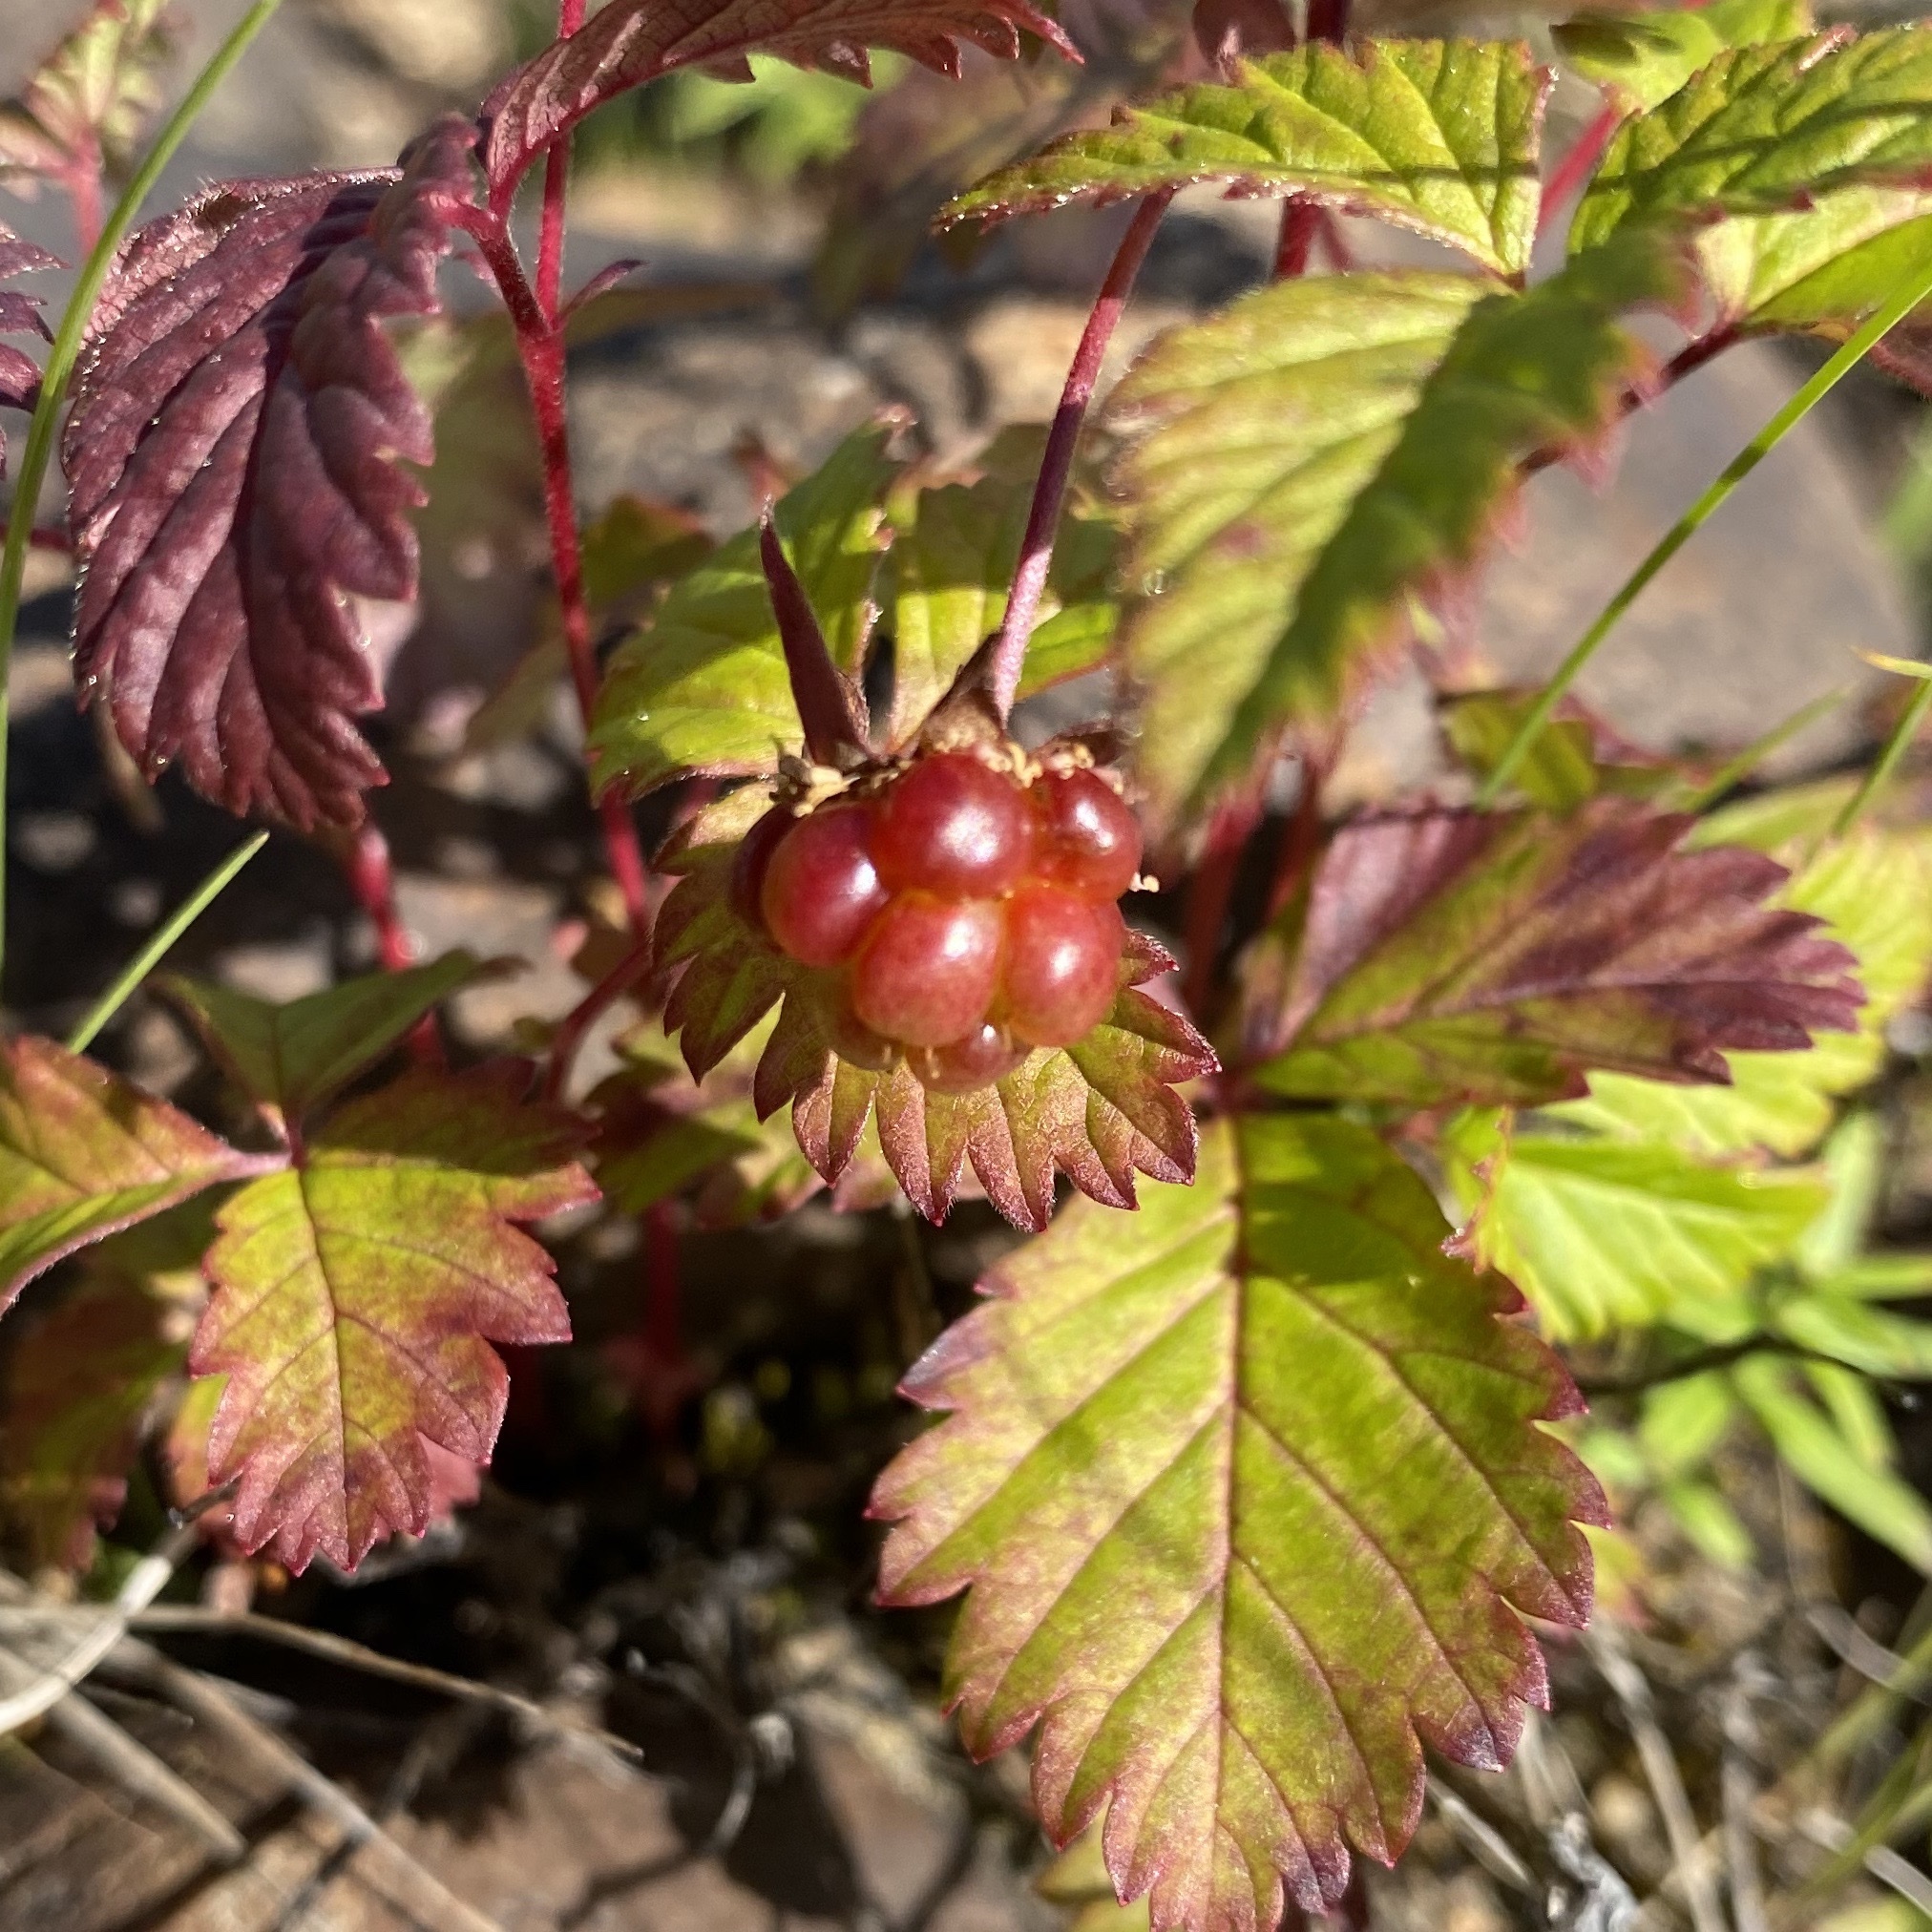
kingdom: Plantae
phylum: Tracheophyta
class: Magnoliopsida
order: Rosales
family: Rosaceae
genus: Rubus
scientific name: Rubus arcticus
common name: Arctic bramble
